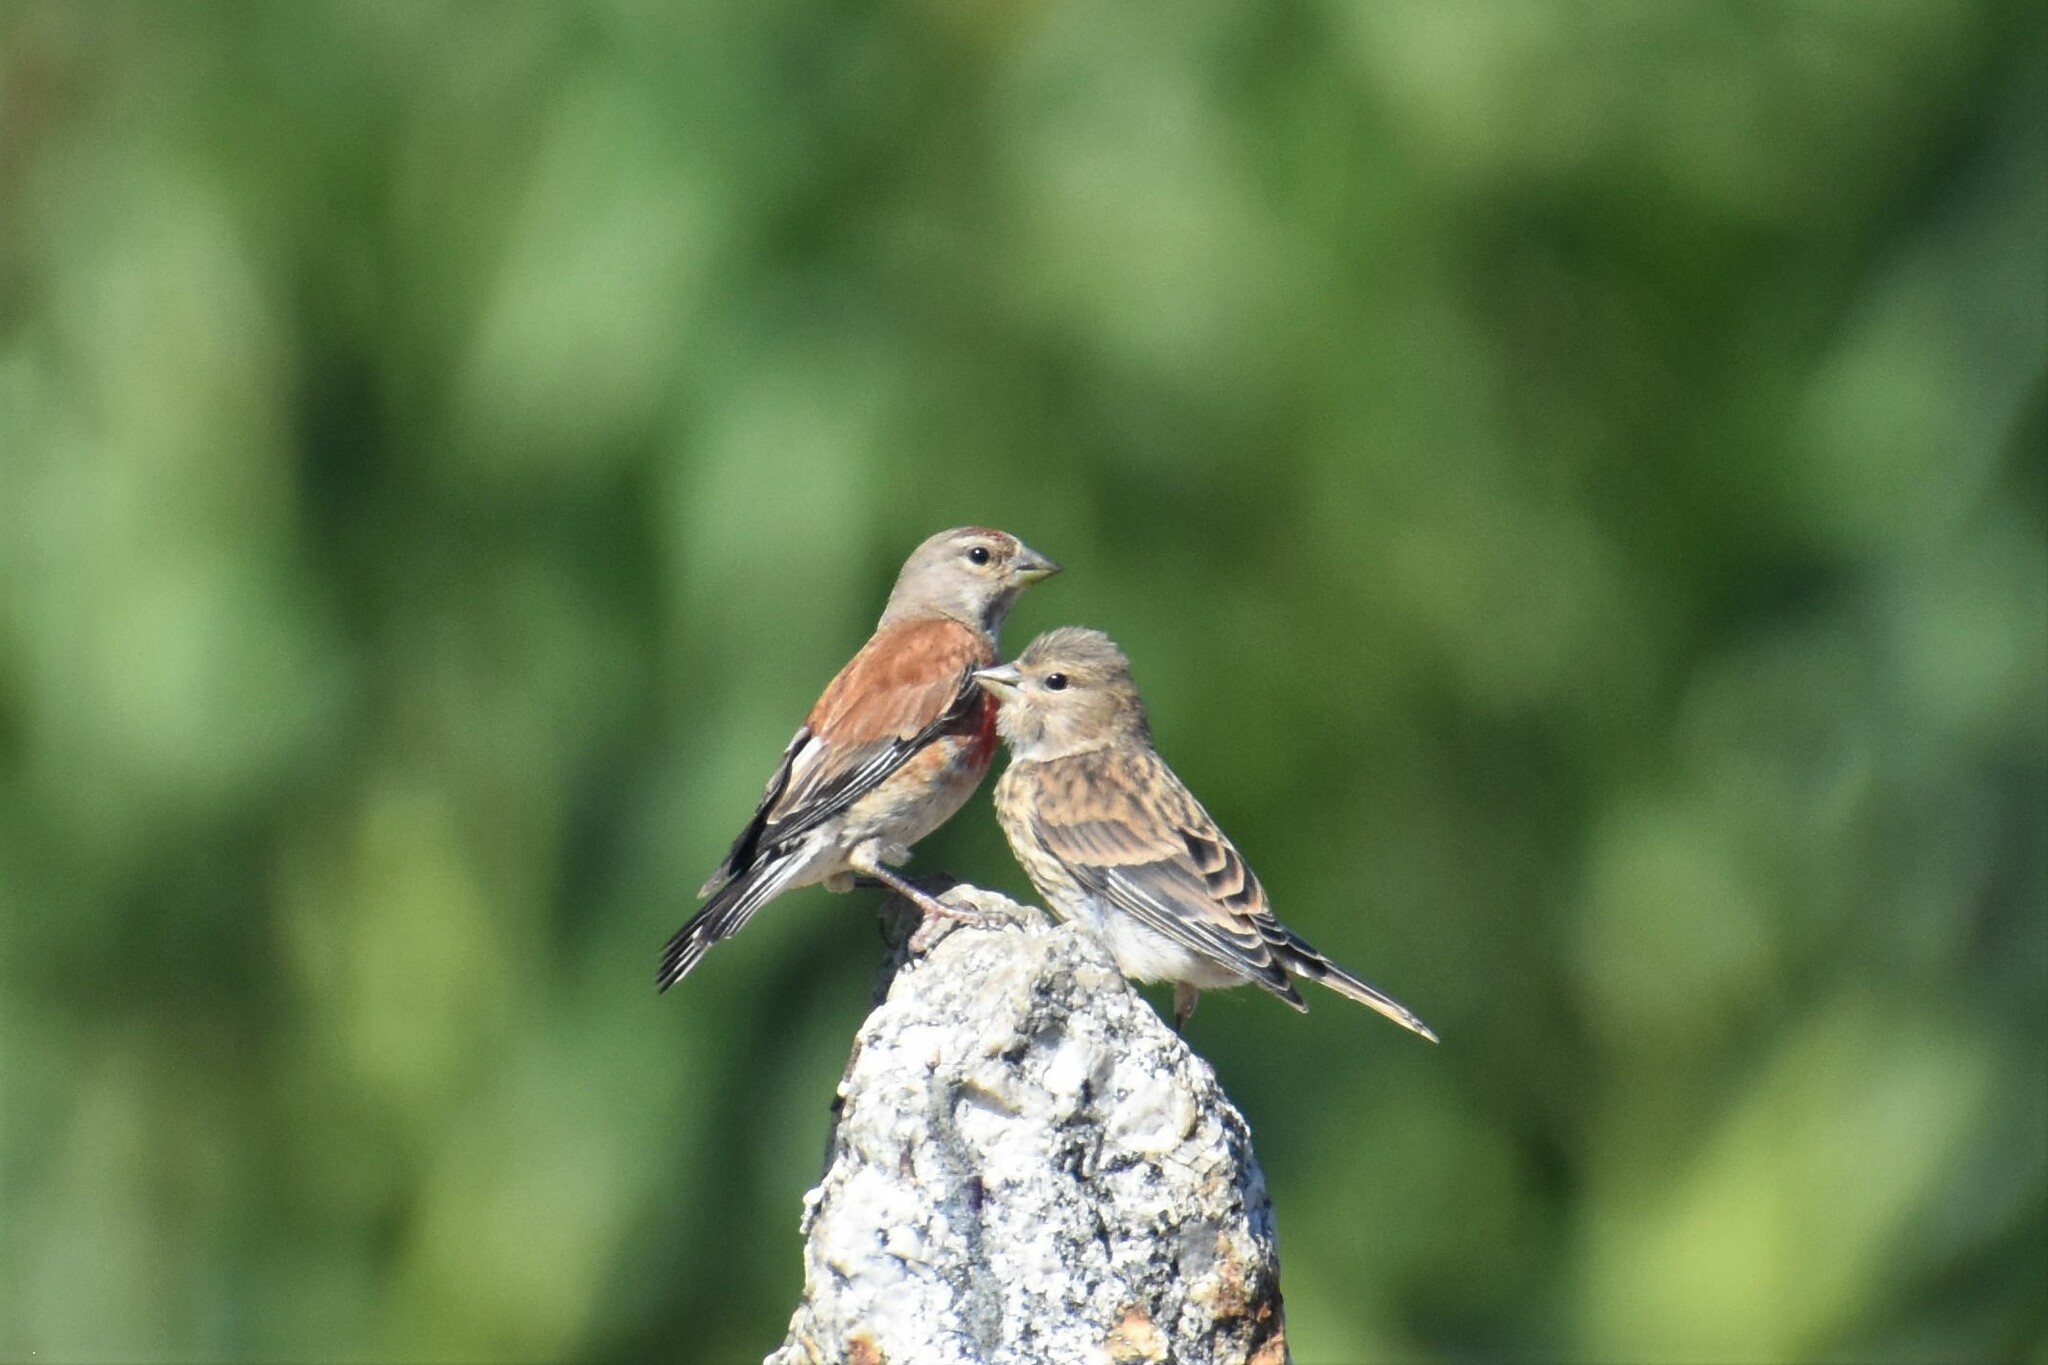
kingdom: Animalia
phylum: Chordata
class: Aves
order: Passeriformes
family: Fringillidae
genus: Linaria
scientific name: Linaria cannabina
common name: Common linnet
